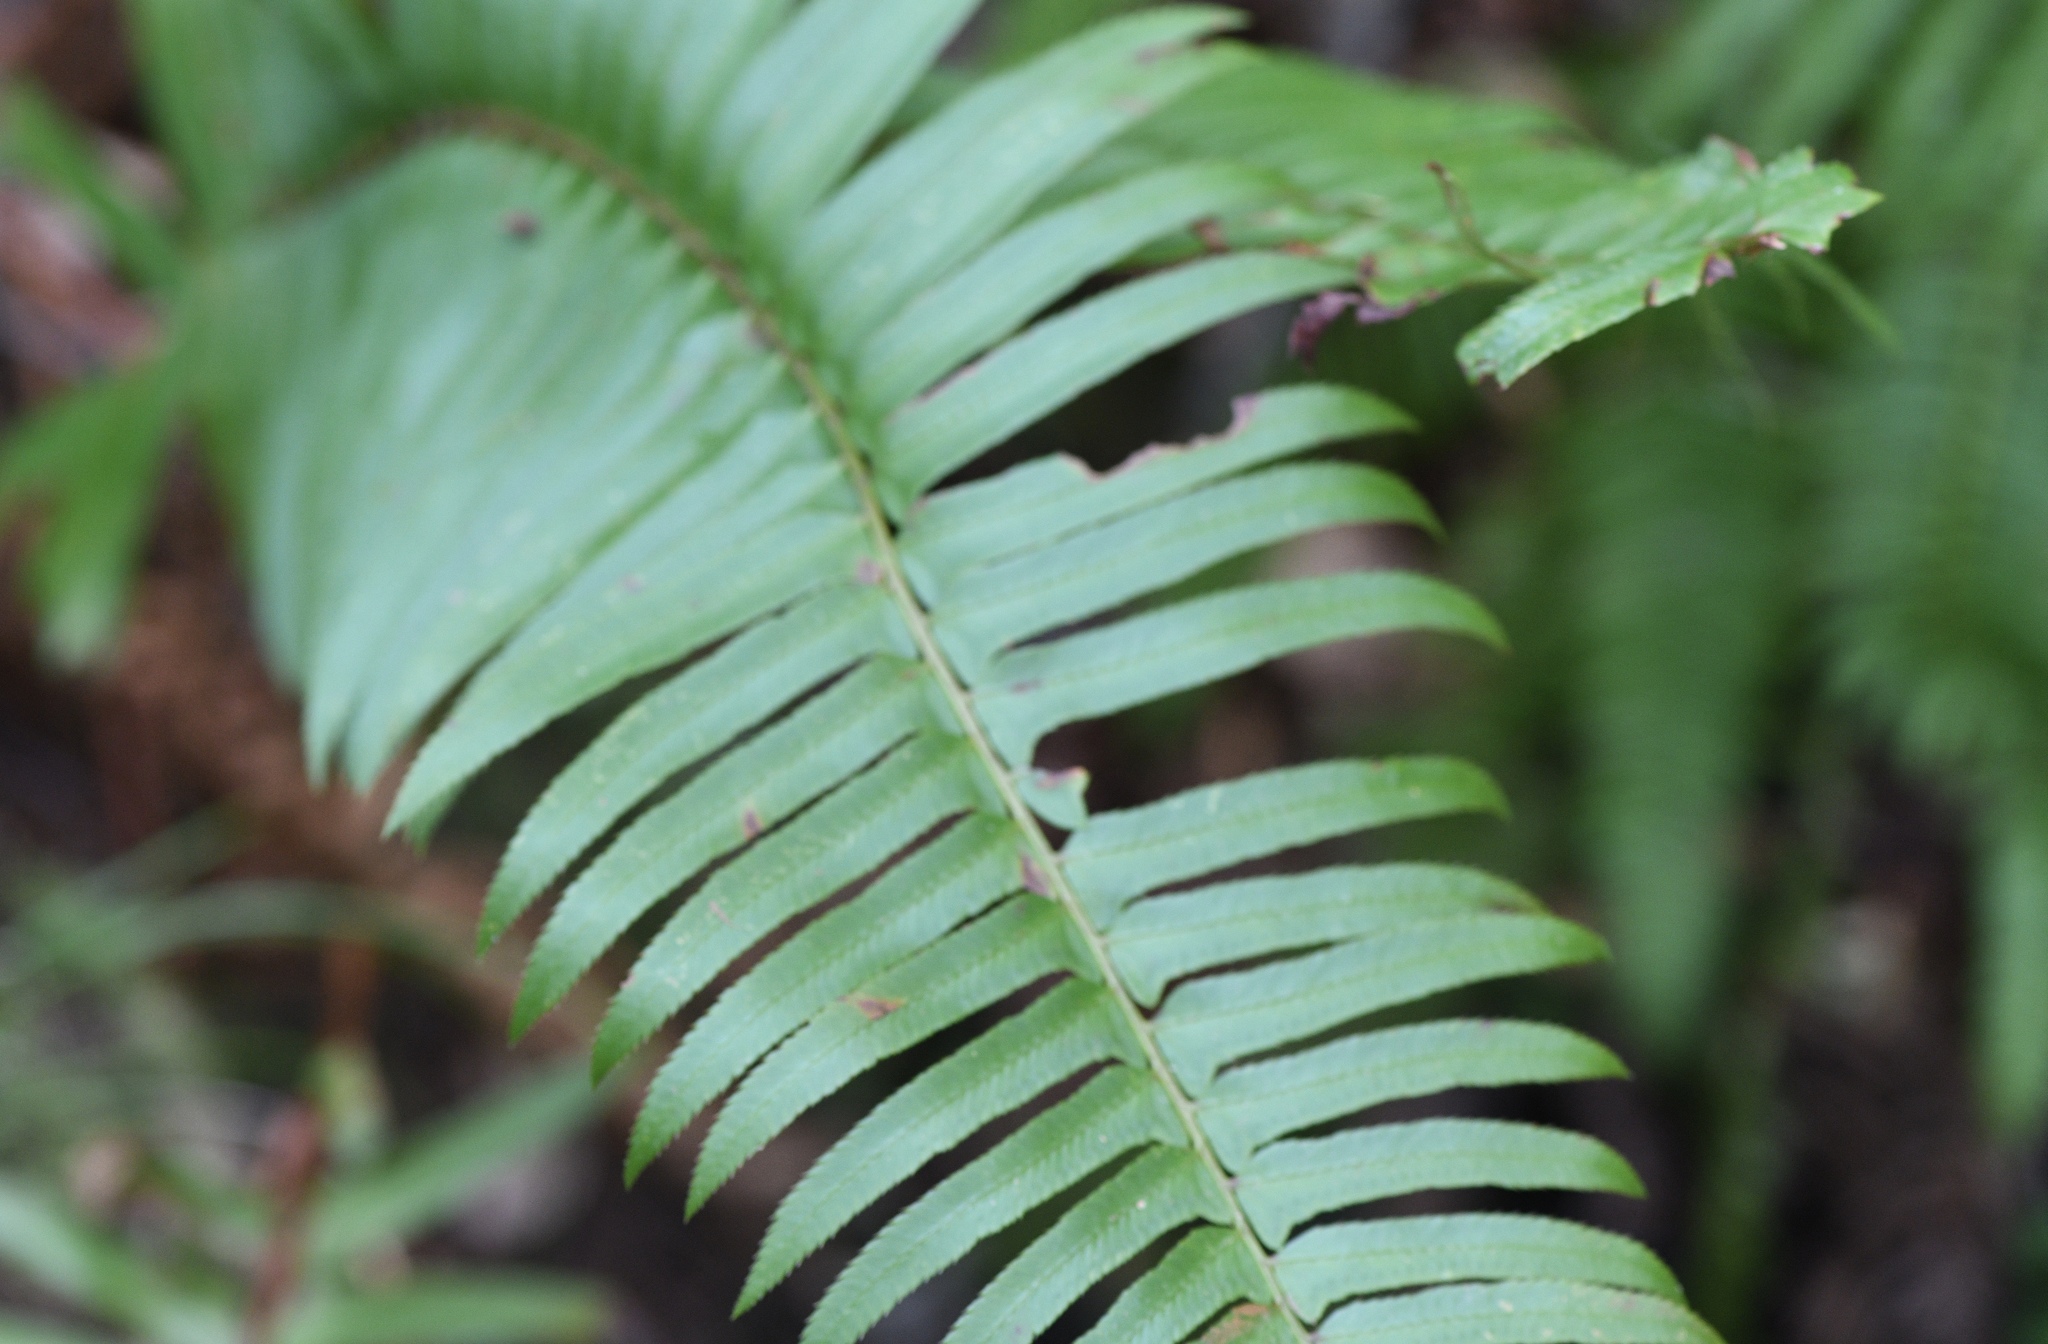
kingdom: Plantae
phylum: Tracheophyta
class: Polypodiopsida
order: Polypodiales
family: Dryopteridaceae
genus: Polystichum
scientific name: Polystichum munitum
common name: Western sword-fern
